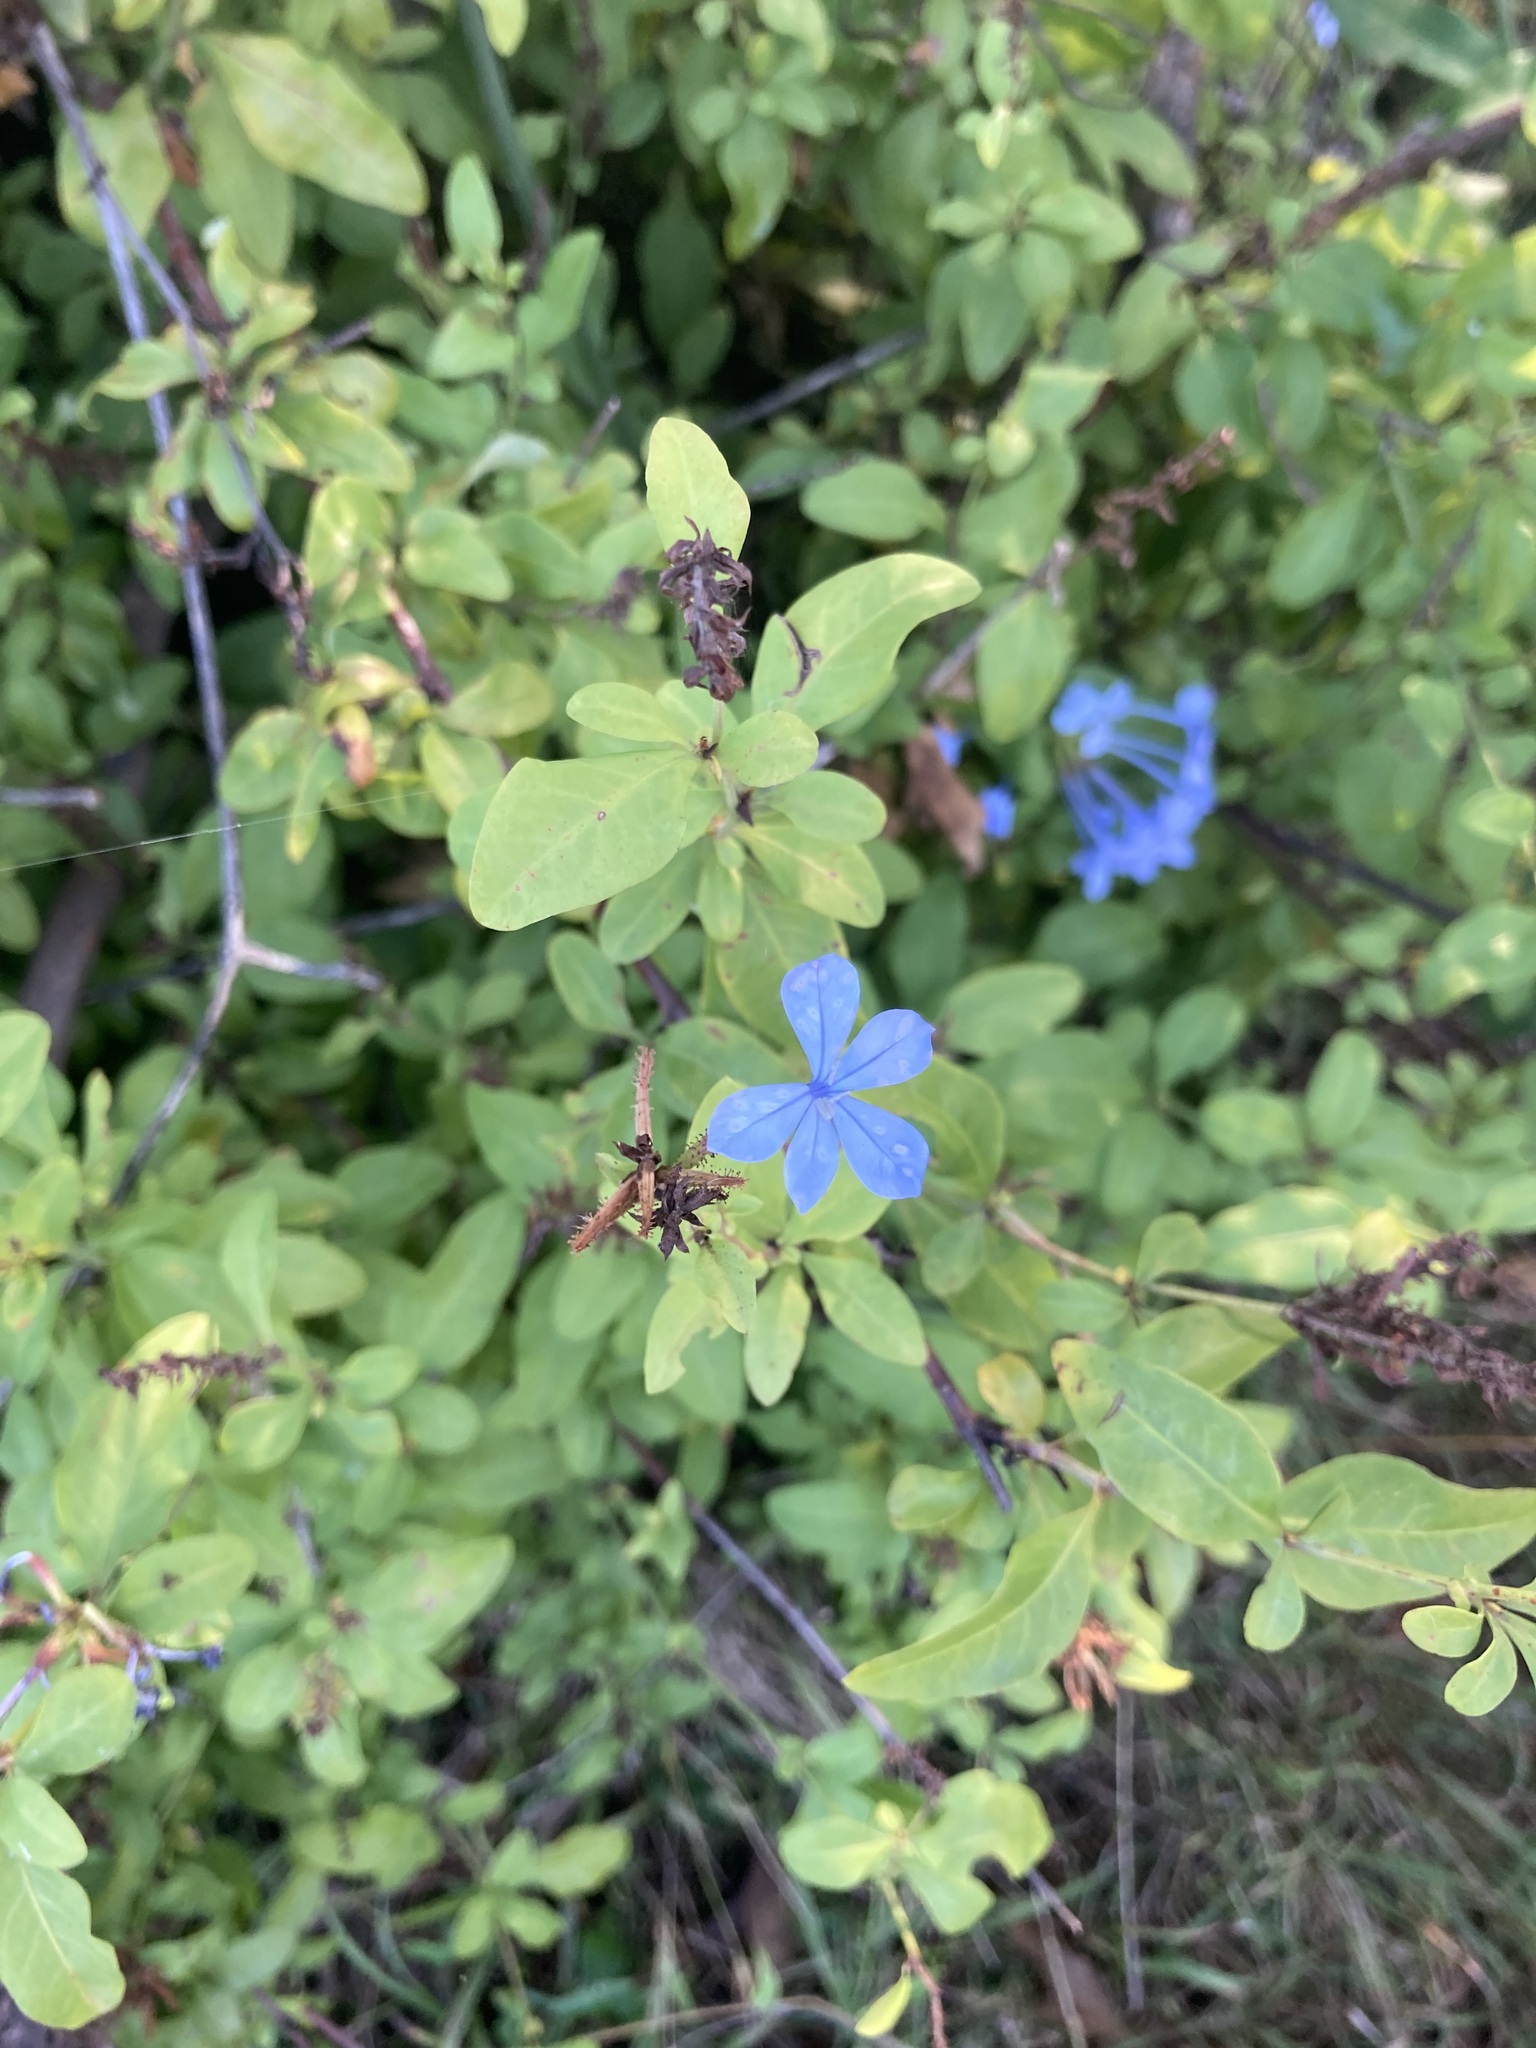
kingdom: Plantae
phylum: Tracheophyta
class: Magnoliopsida
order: Caryophyllales
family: Plumbaginaceae
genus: Plumbago
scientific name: Plumbago auriculata
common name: Cape leadwort
